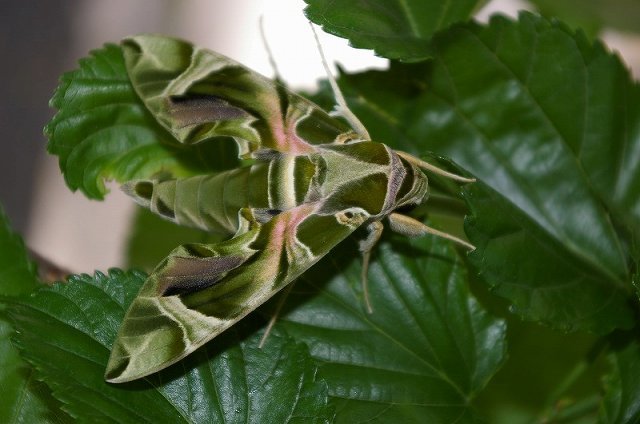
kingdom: Animalia
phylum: Arthropoda
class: Insecta
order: Lepidoptera
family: Sphingidae
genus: Daphnis
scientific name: Daphnis nerii
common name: Oleander hawk-moth
